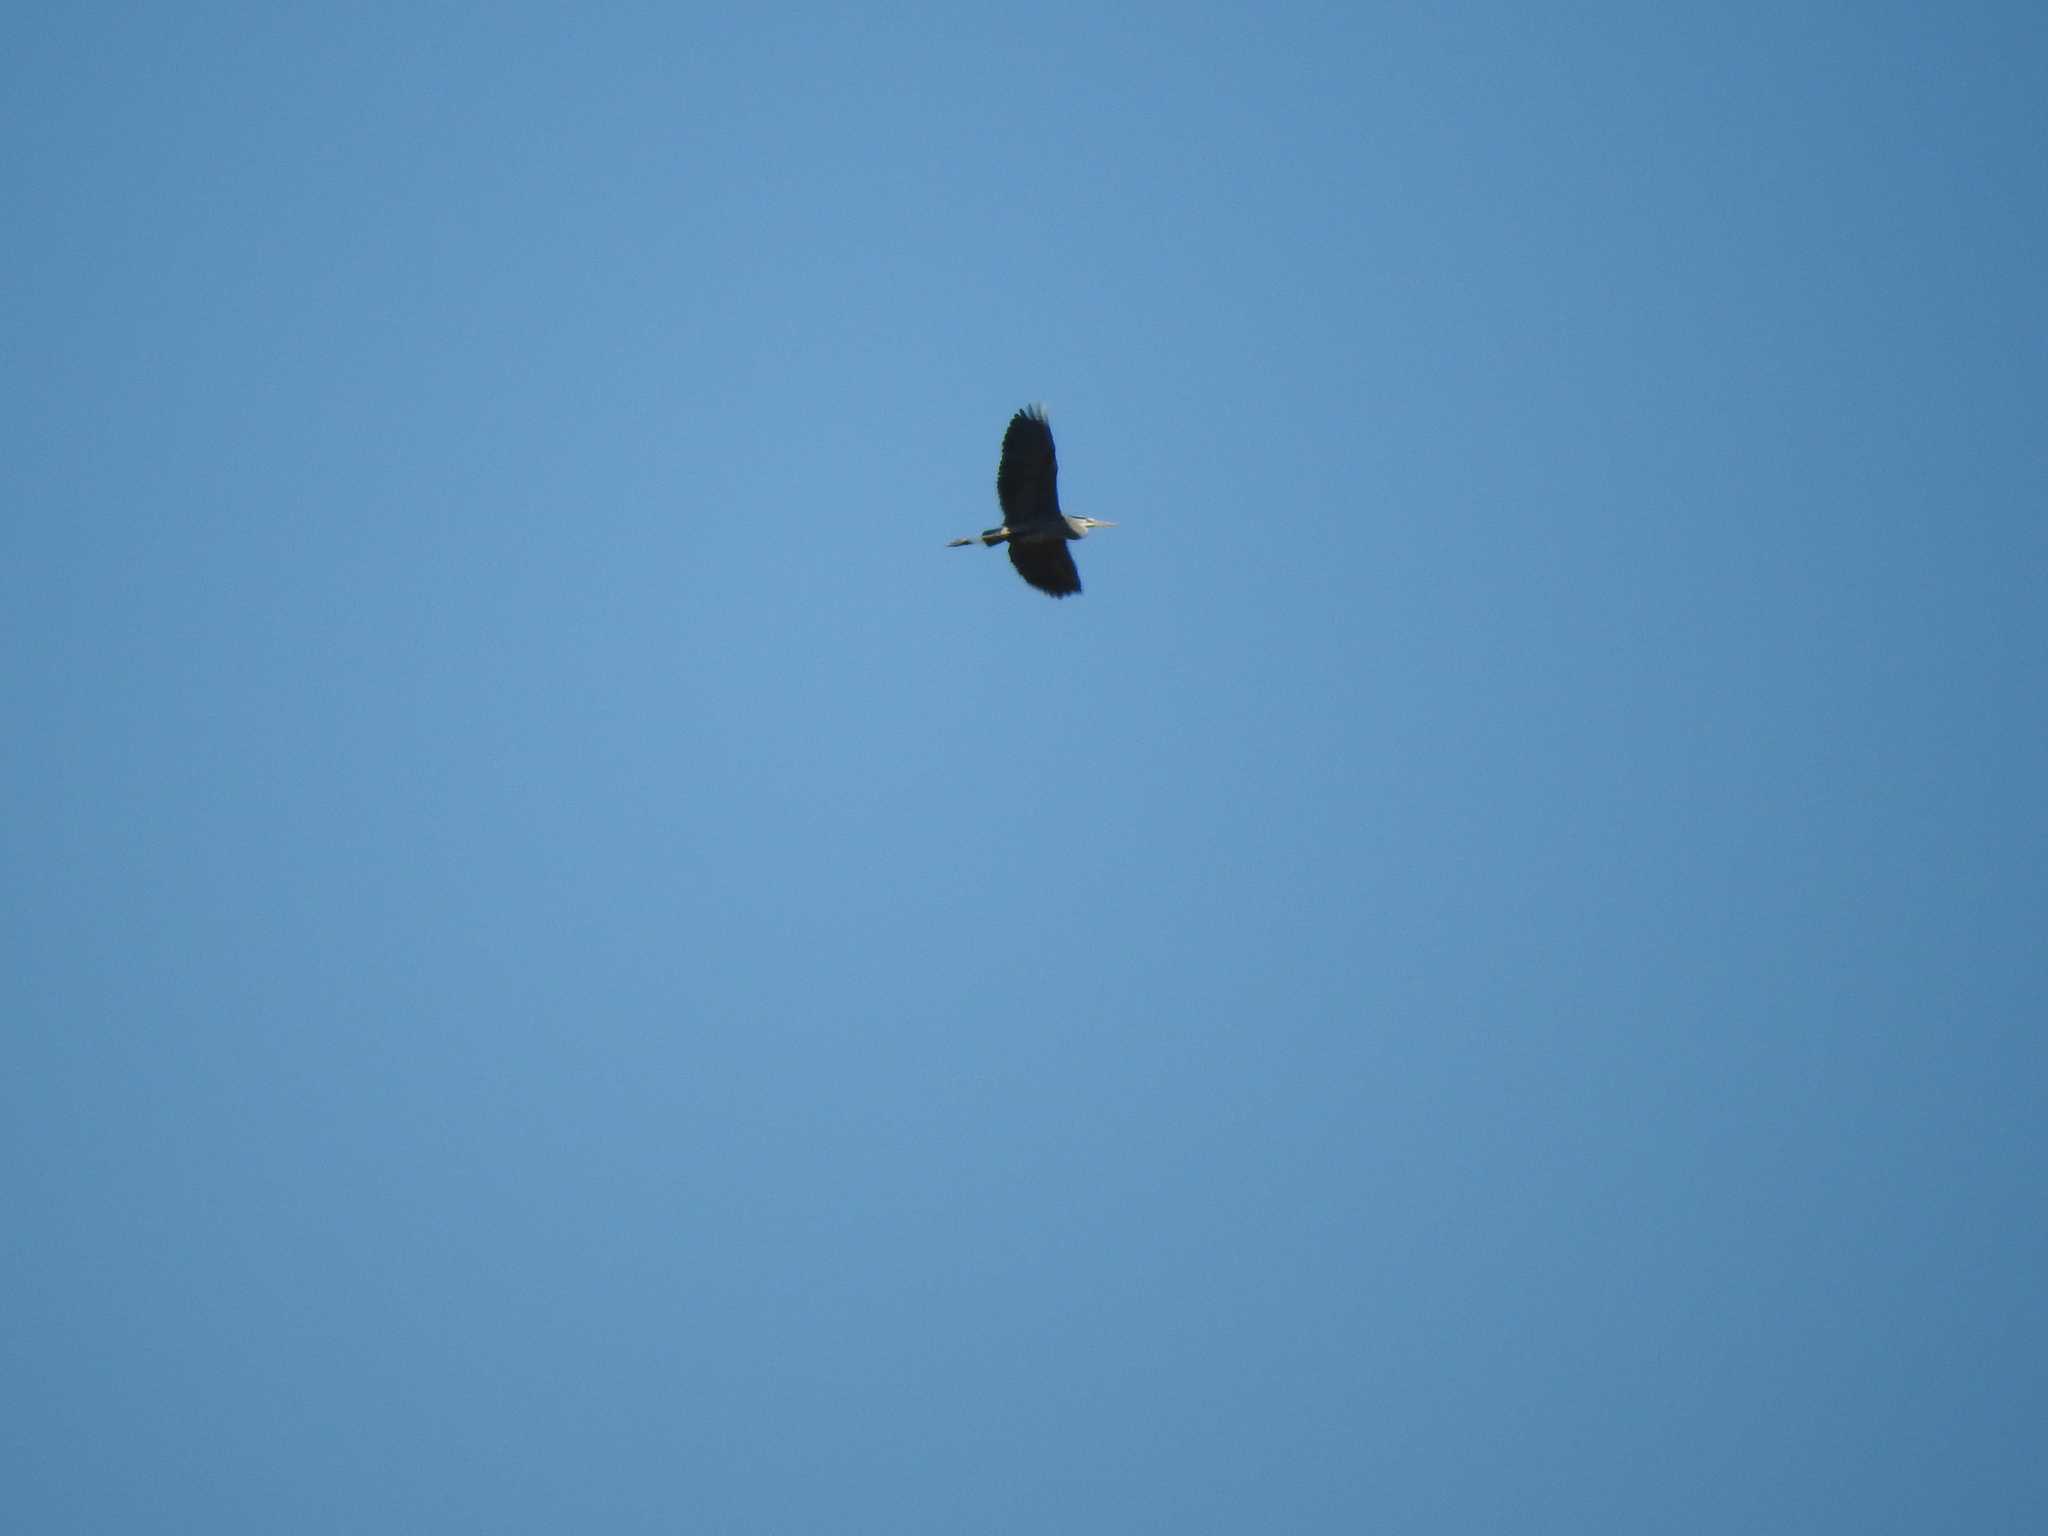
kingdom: Animalia
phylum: Chordata
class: Aves
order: Pelecaniformes
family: Ardeidae
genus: Ardea
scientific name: Ardea herodias
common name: Great blue heron
